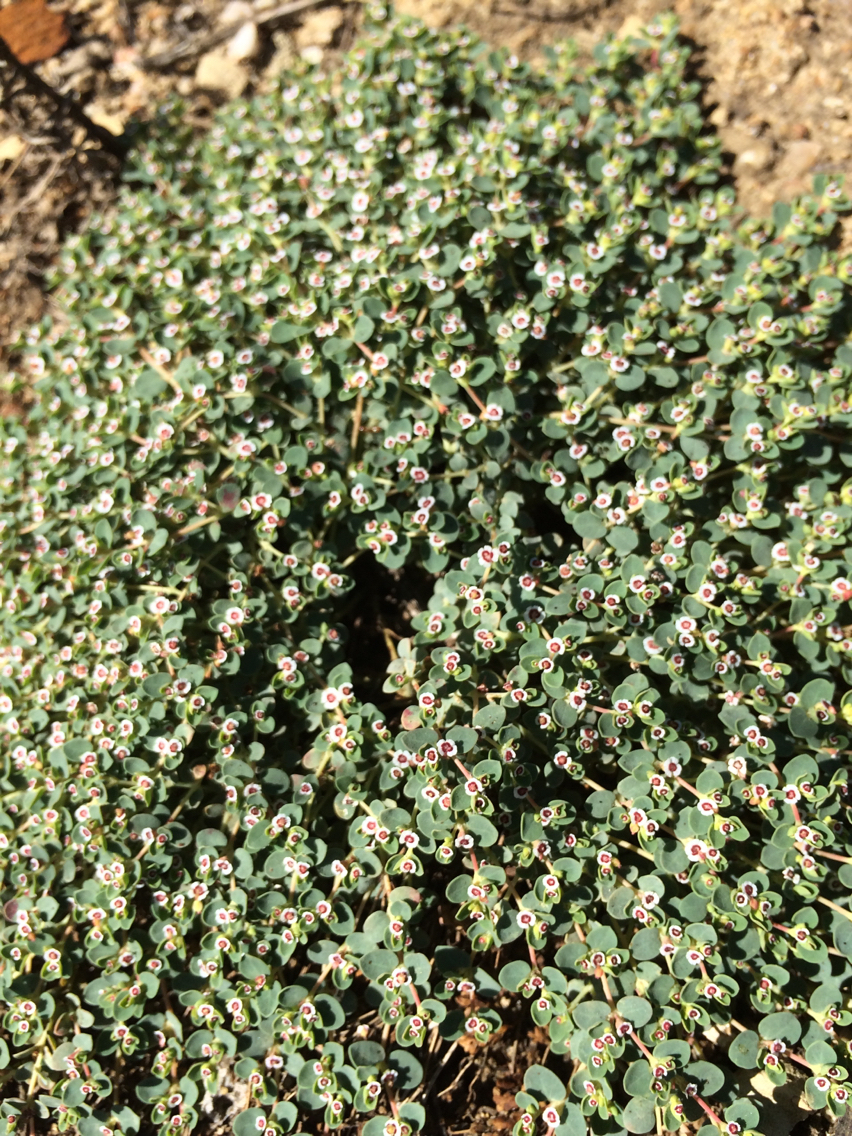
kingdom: Plantae
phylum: Tracheophyta
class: Magnoliopsida
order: Malpighiales
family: Euphorbiaceae
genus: Euphorbia
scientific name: Euphorbia albomarginata
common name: Whitemargin sandmat
